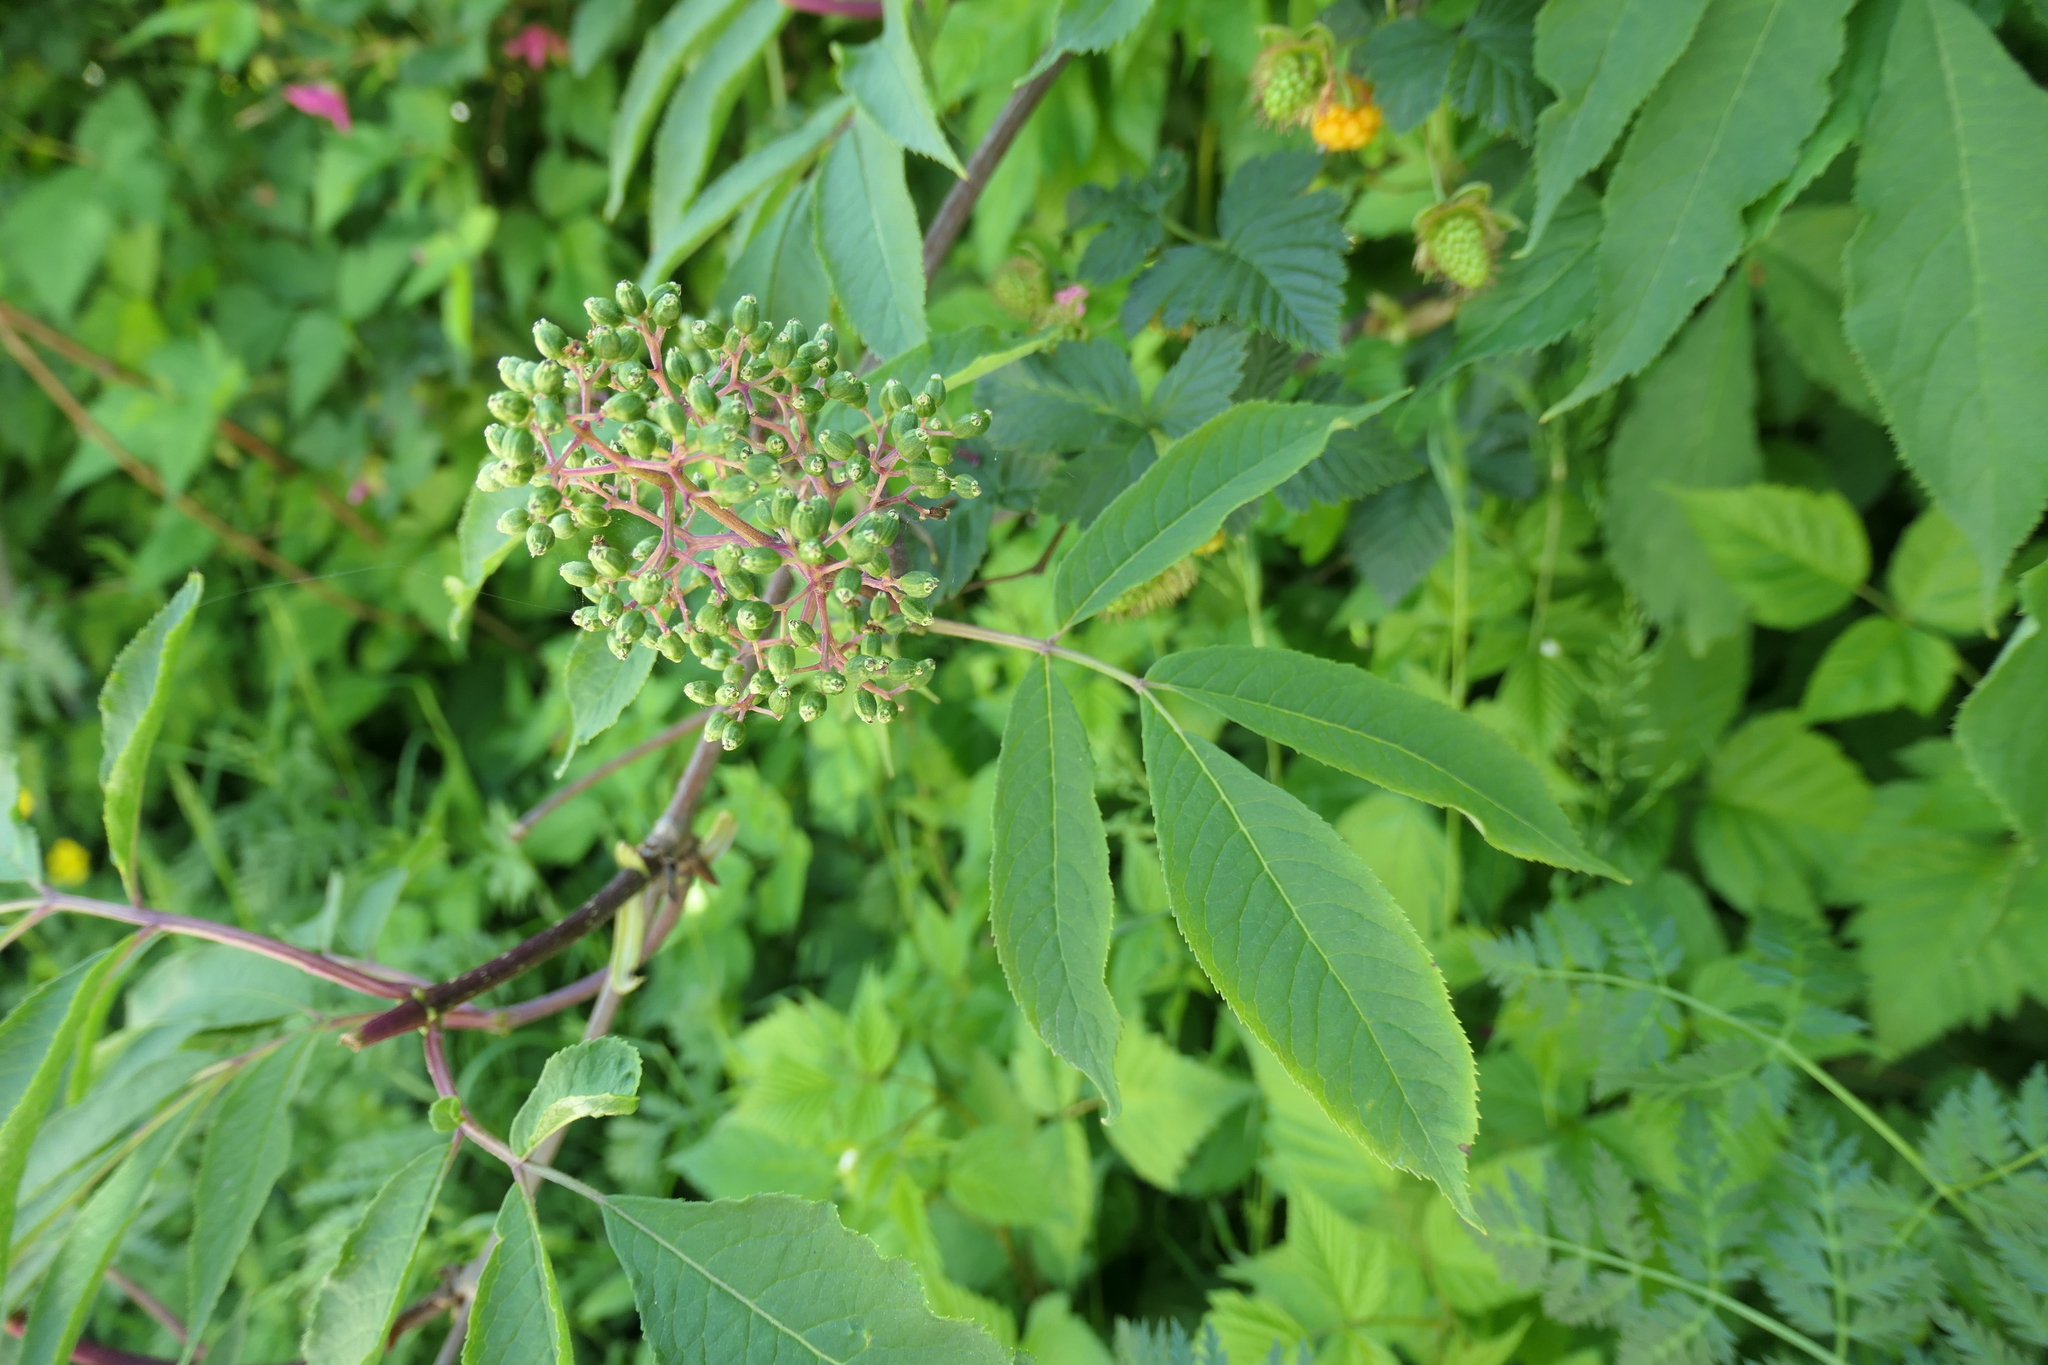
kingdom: Plantae
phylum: Tracheophyta
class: Magnoliopsida
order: Dipsacales
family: Viburnaceae
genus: Sambucus
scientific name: Sambucus racemosa
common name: Red-berried elder
